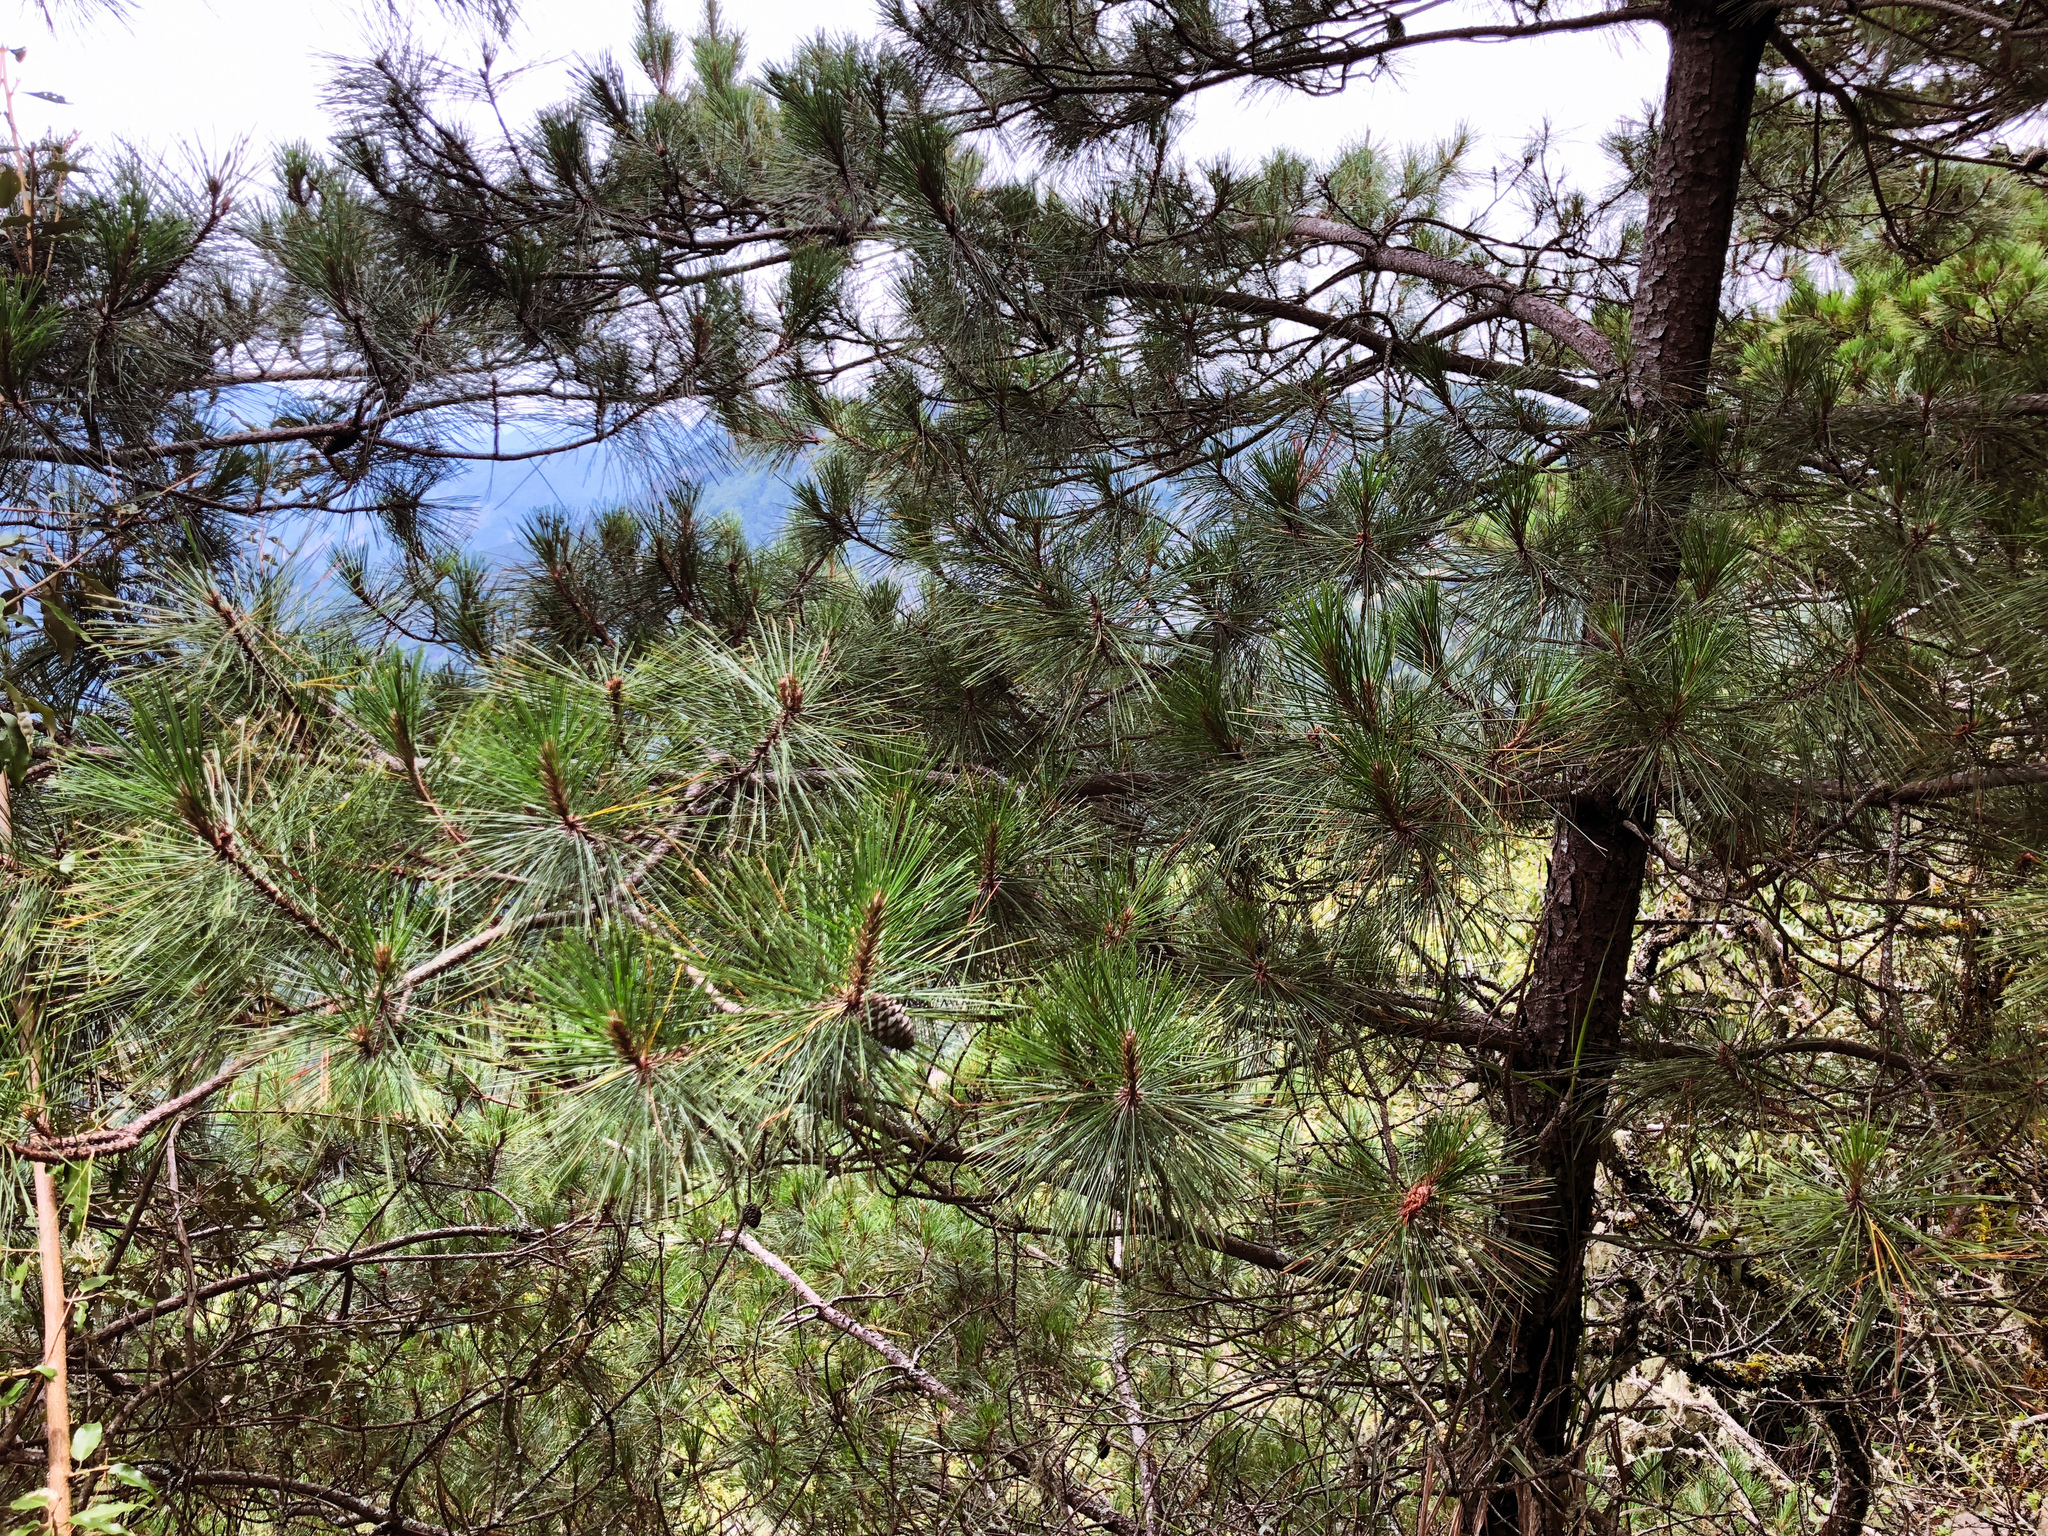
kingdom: Plantae
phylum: Tracheophyta
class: Pinopsida
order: Pinales
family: Pinaceae
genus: Pinus
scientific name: Pinus taiwanensis
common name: Formosa pine
